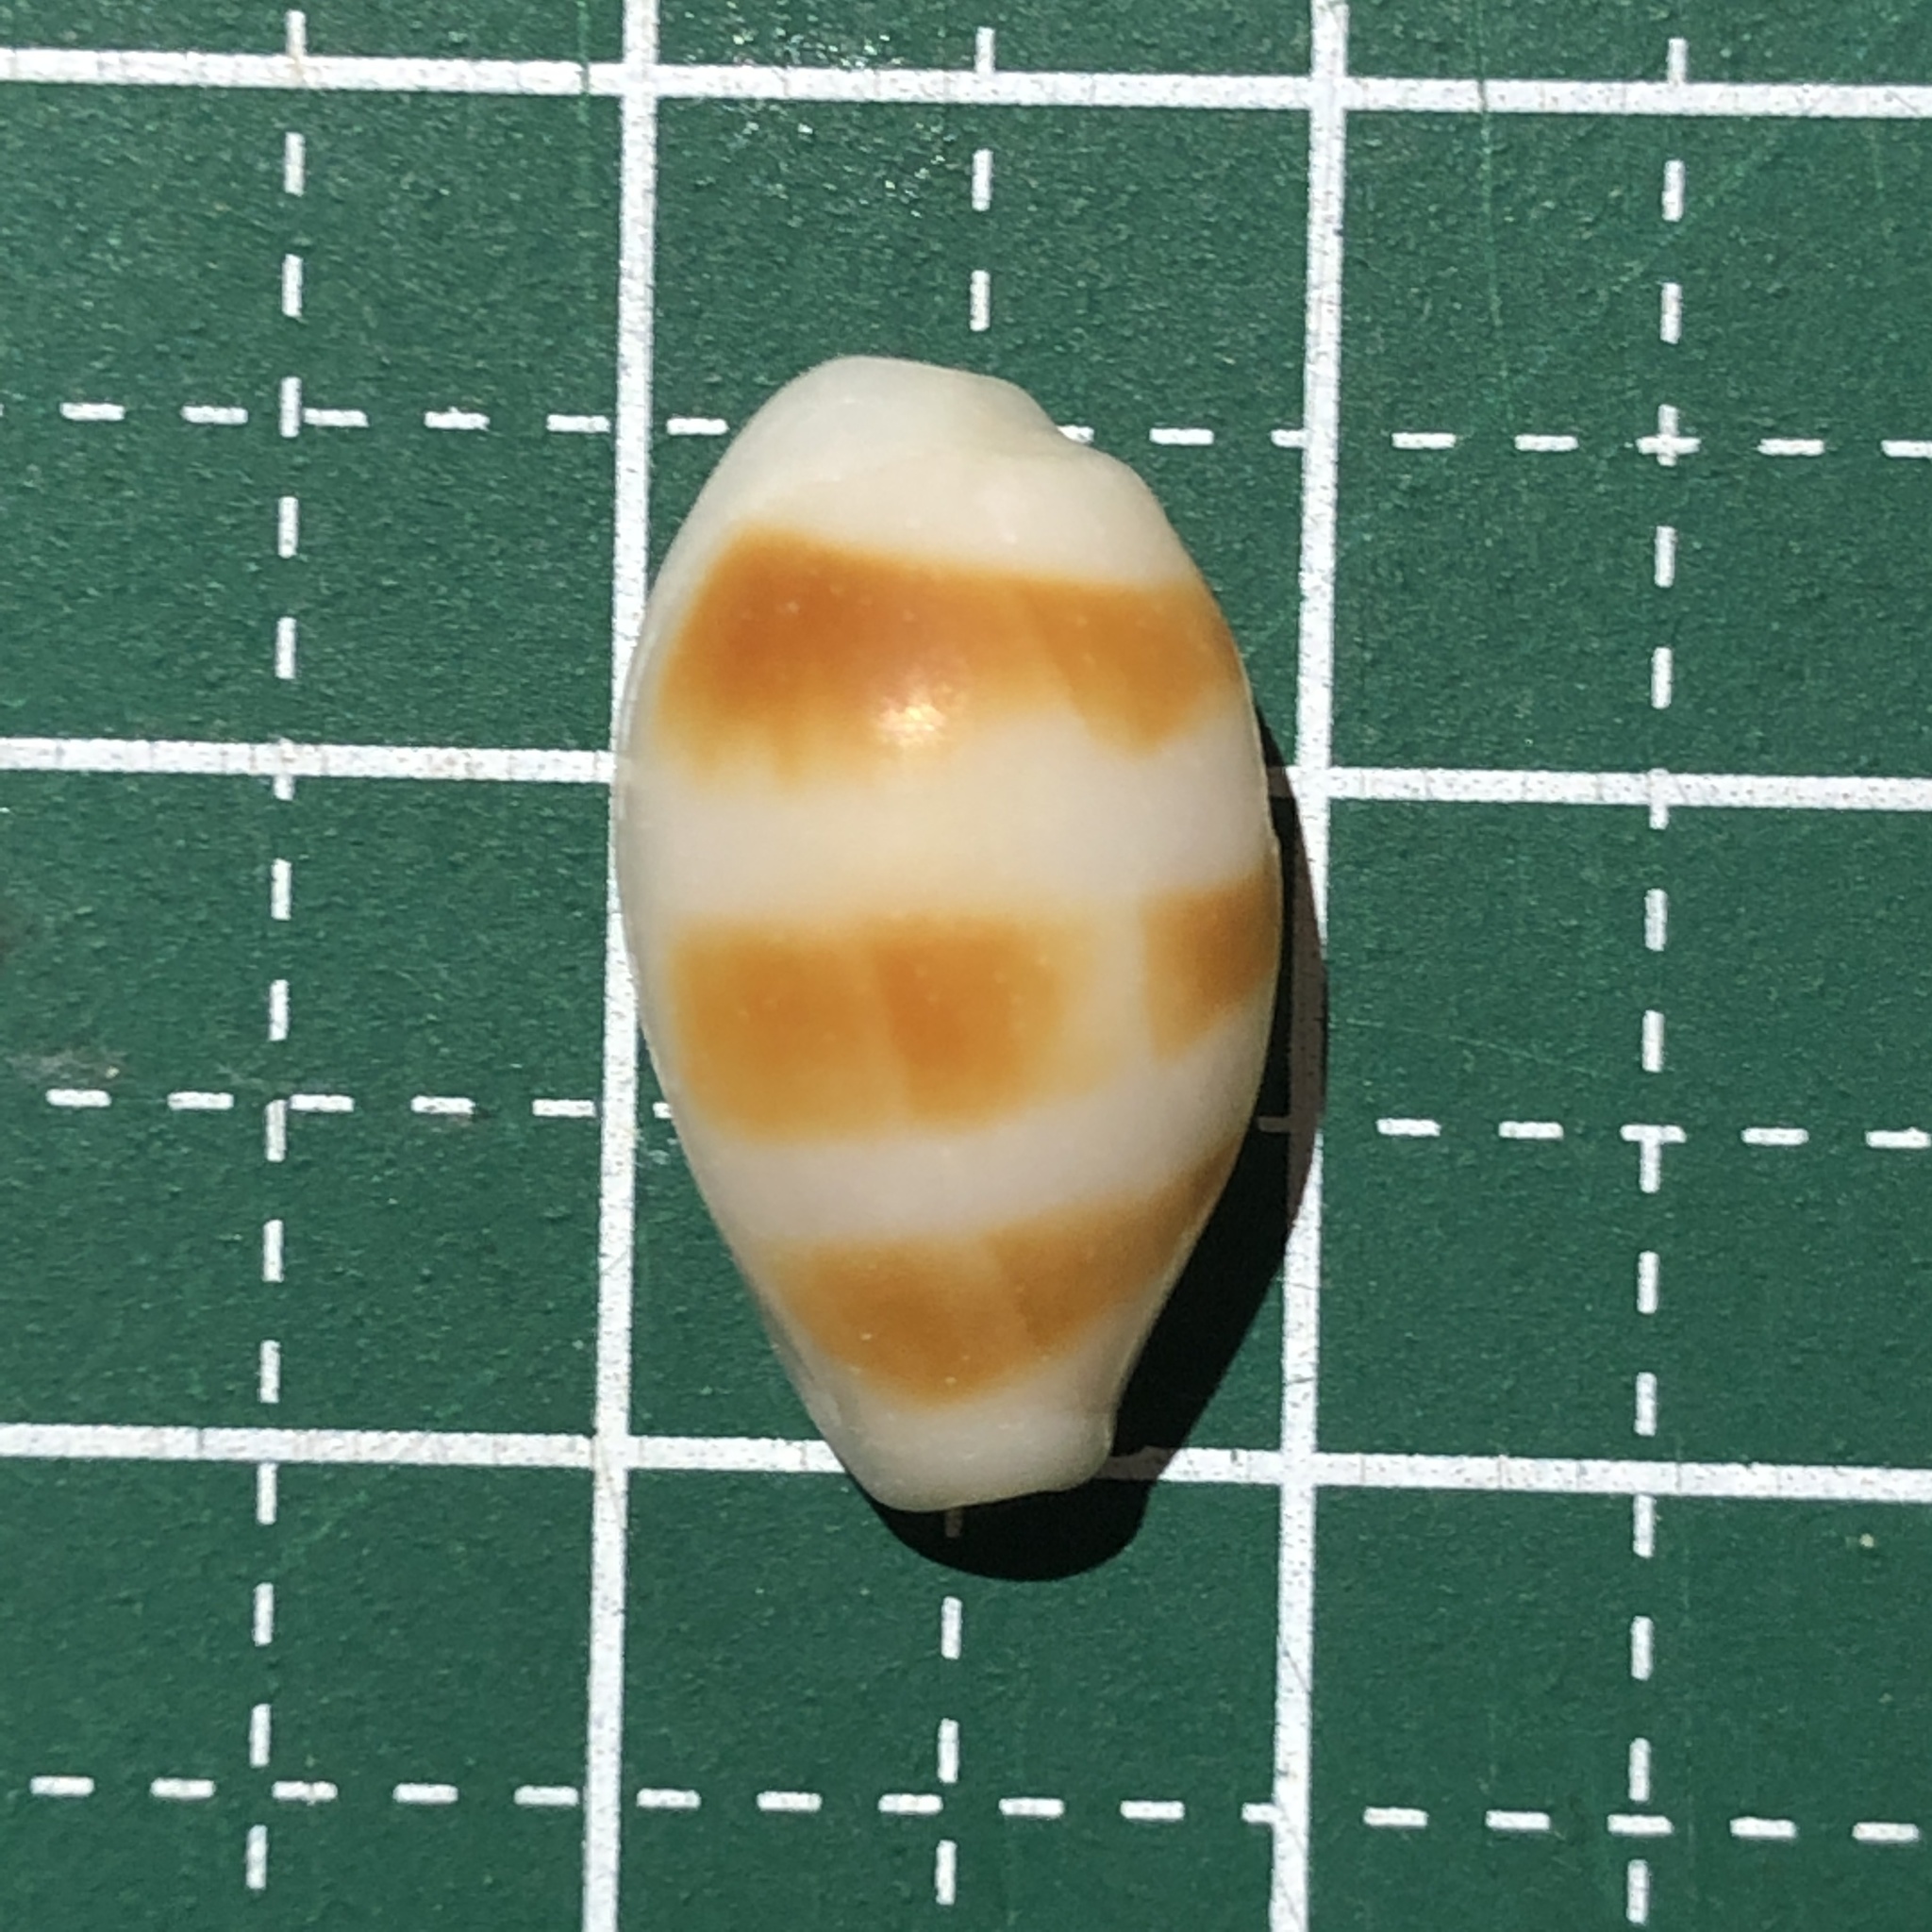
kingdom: Animalia
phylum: Mollusca
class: Gastropoda
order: Littorinimorpha
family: Cypraeidae
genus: Palmadusta
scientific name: Palmadusta asellus
